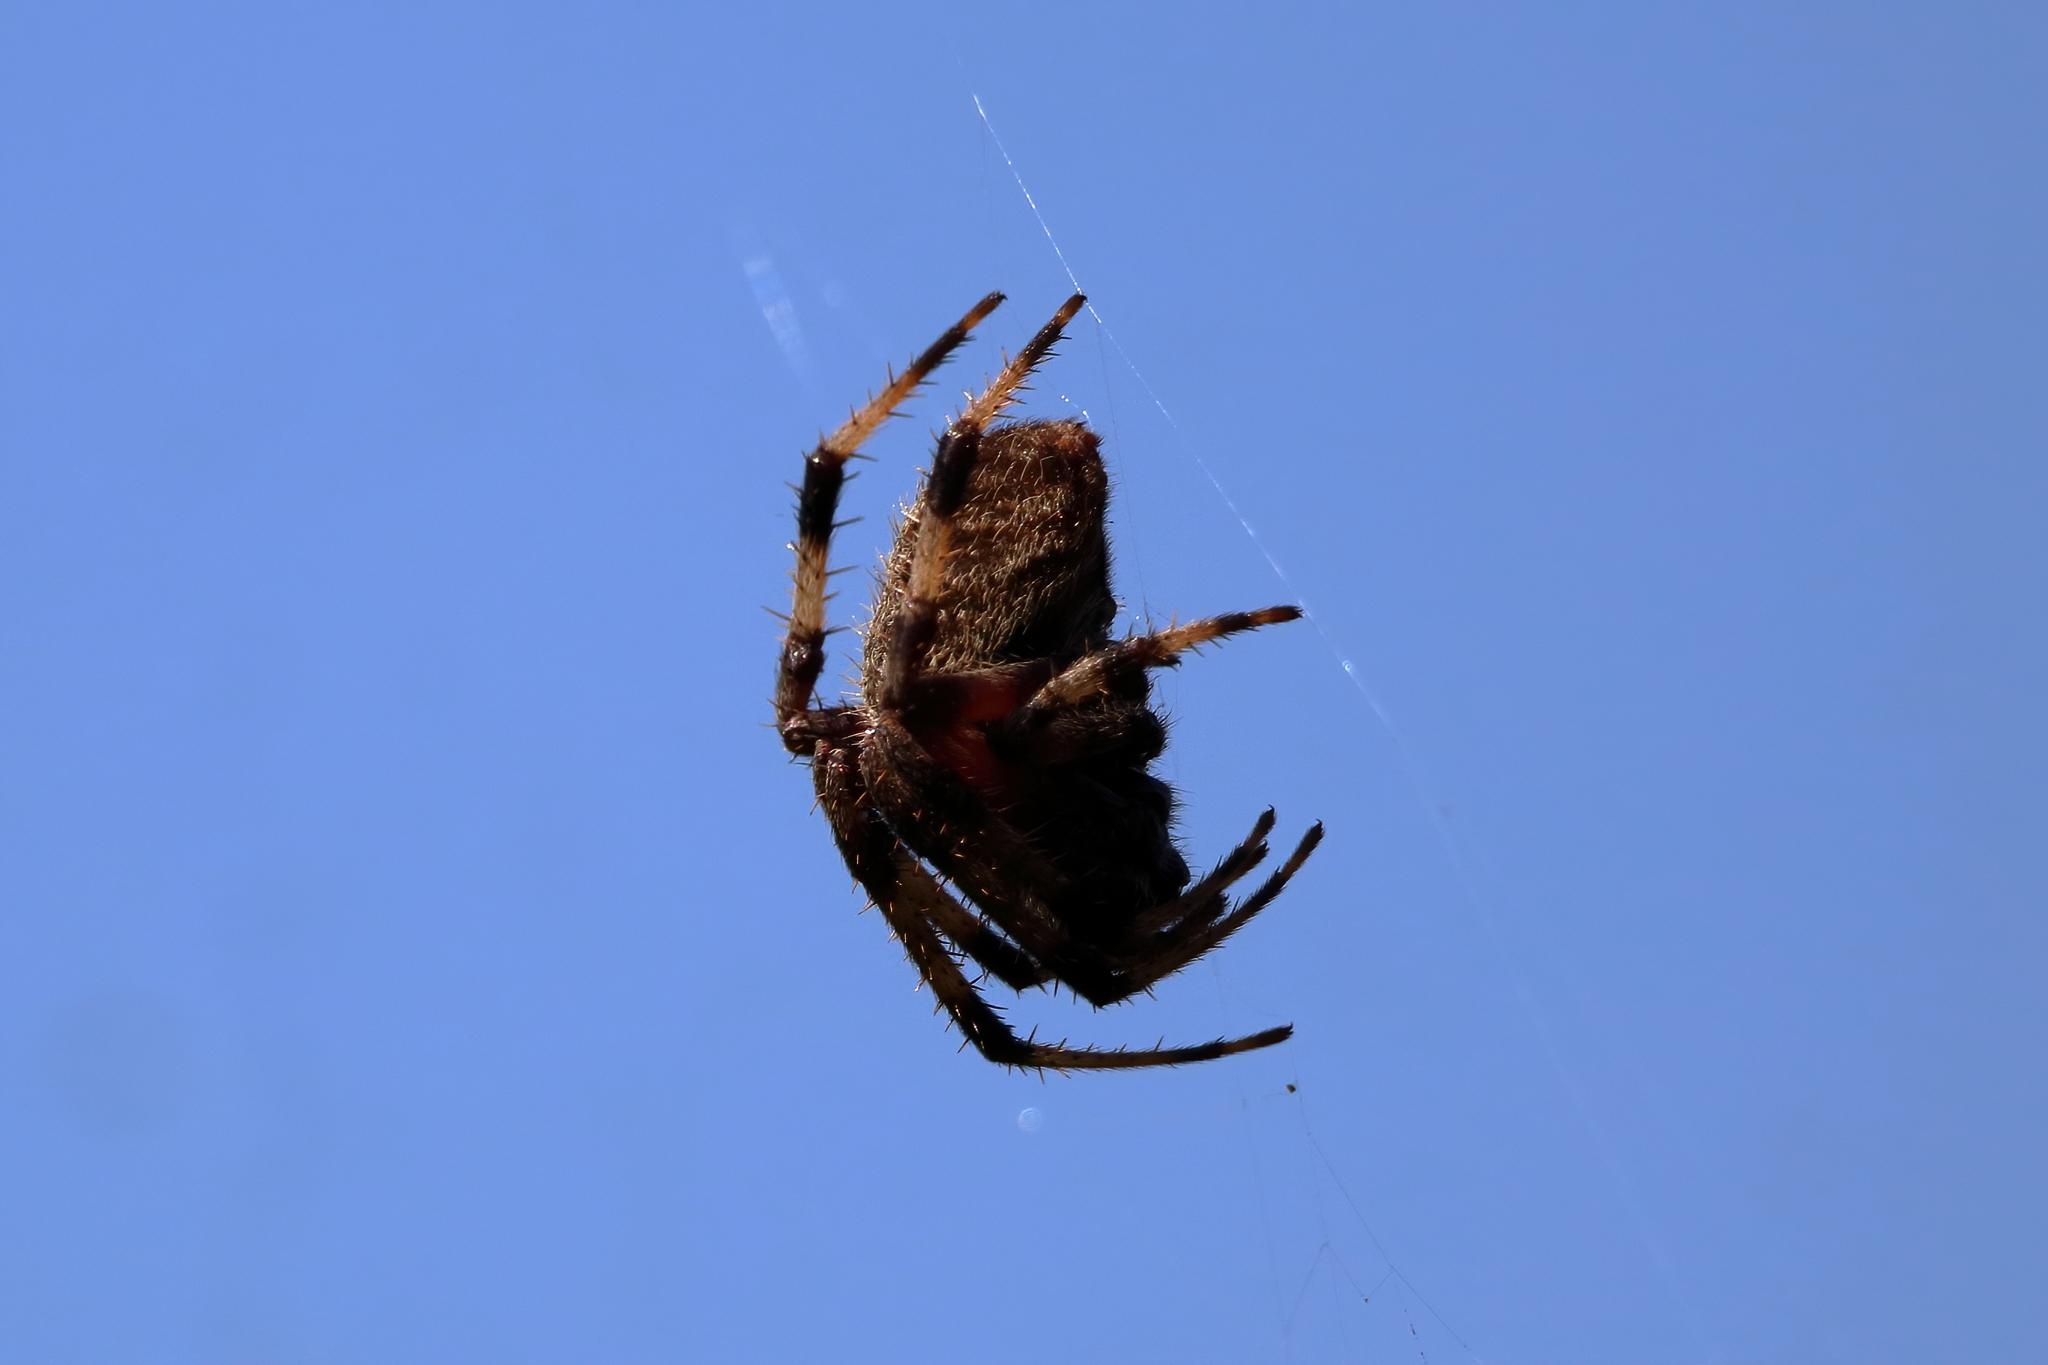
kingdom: Animalia
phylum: Arthropoda
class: Arachnida
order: Araneae
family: Araneidae
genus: Neoscona
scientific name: Neoscona domiciliorum
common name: Red-femured spotted orbweaver
